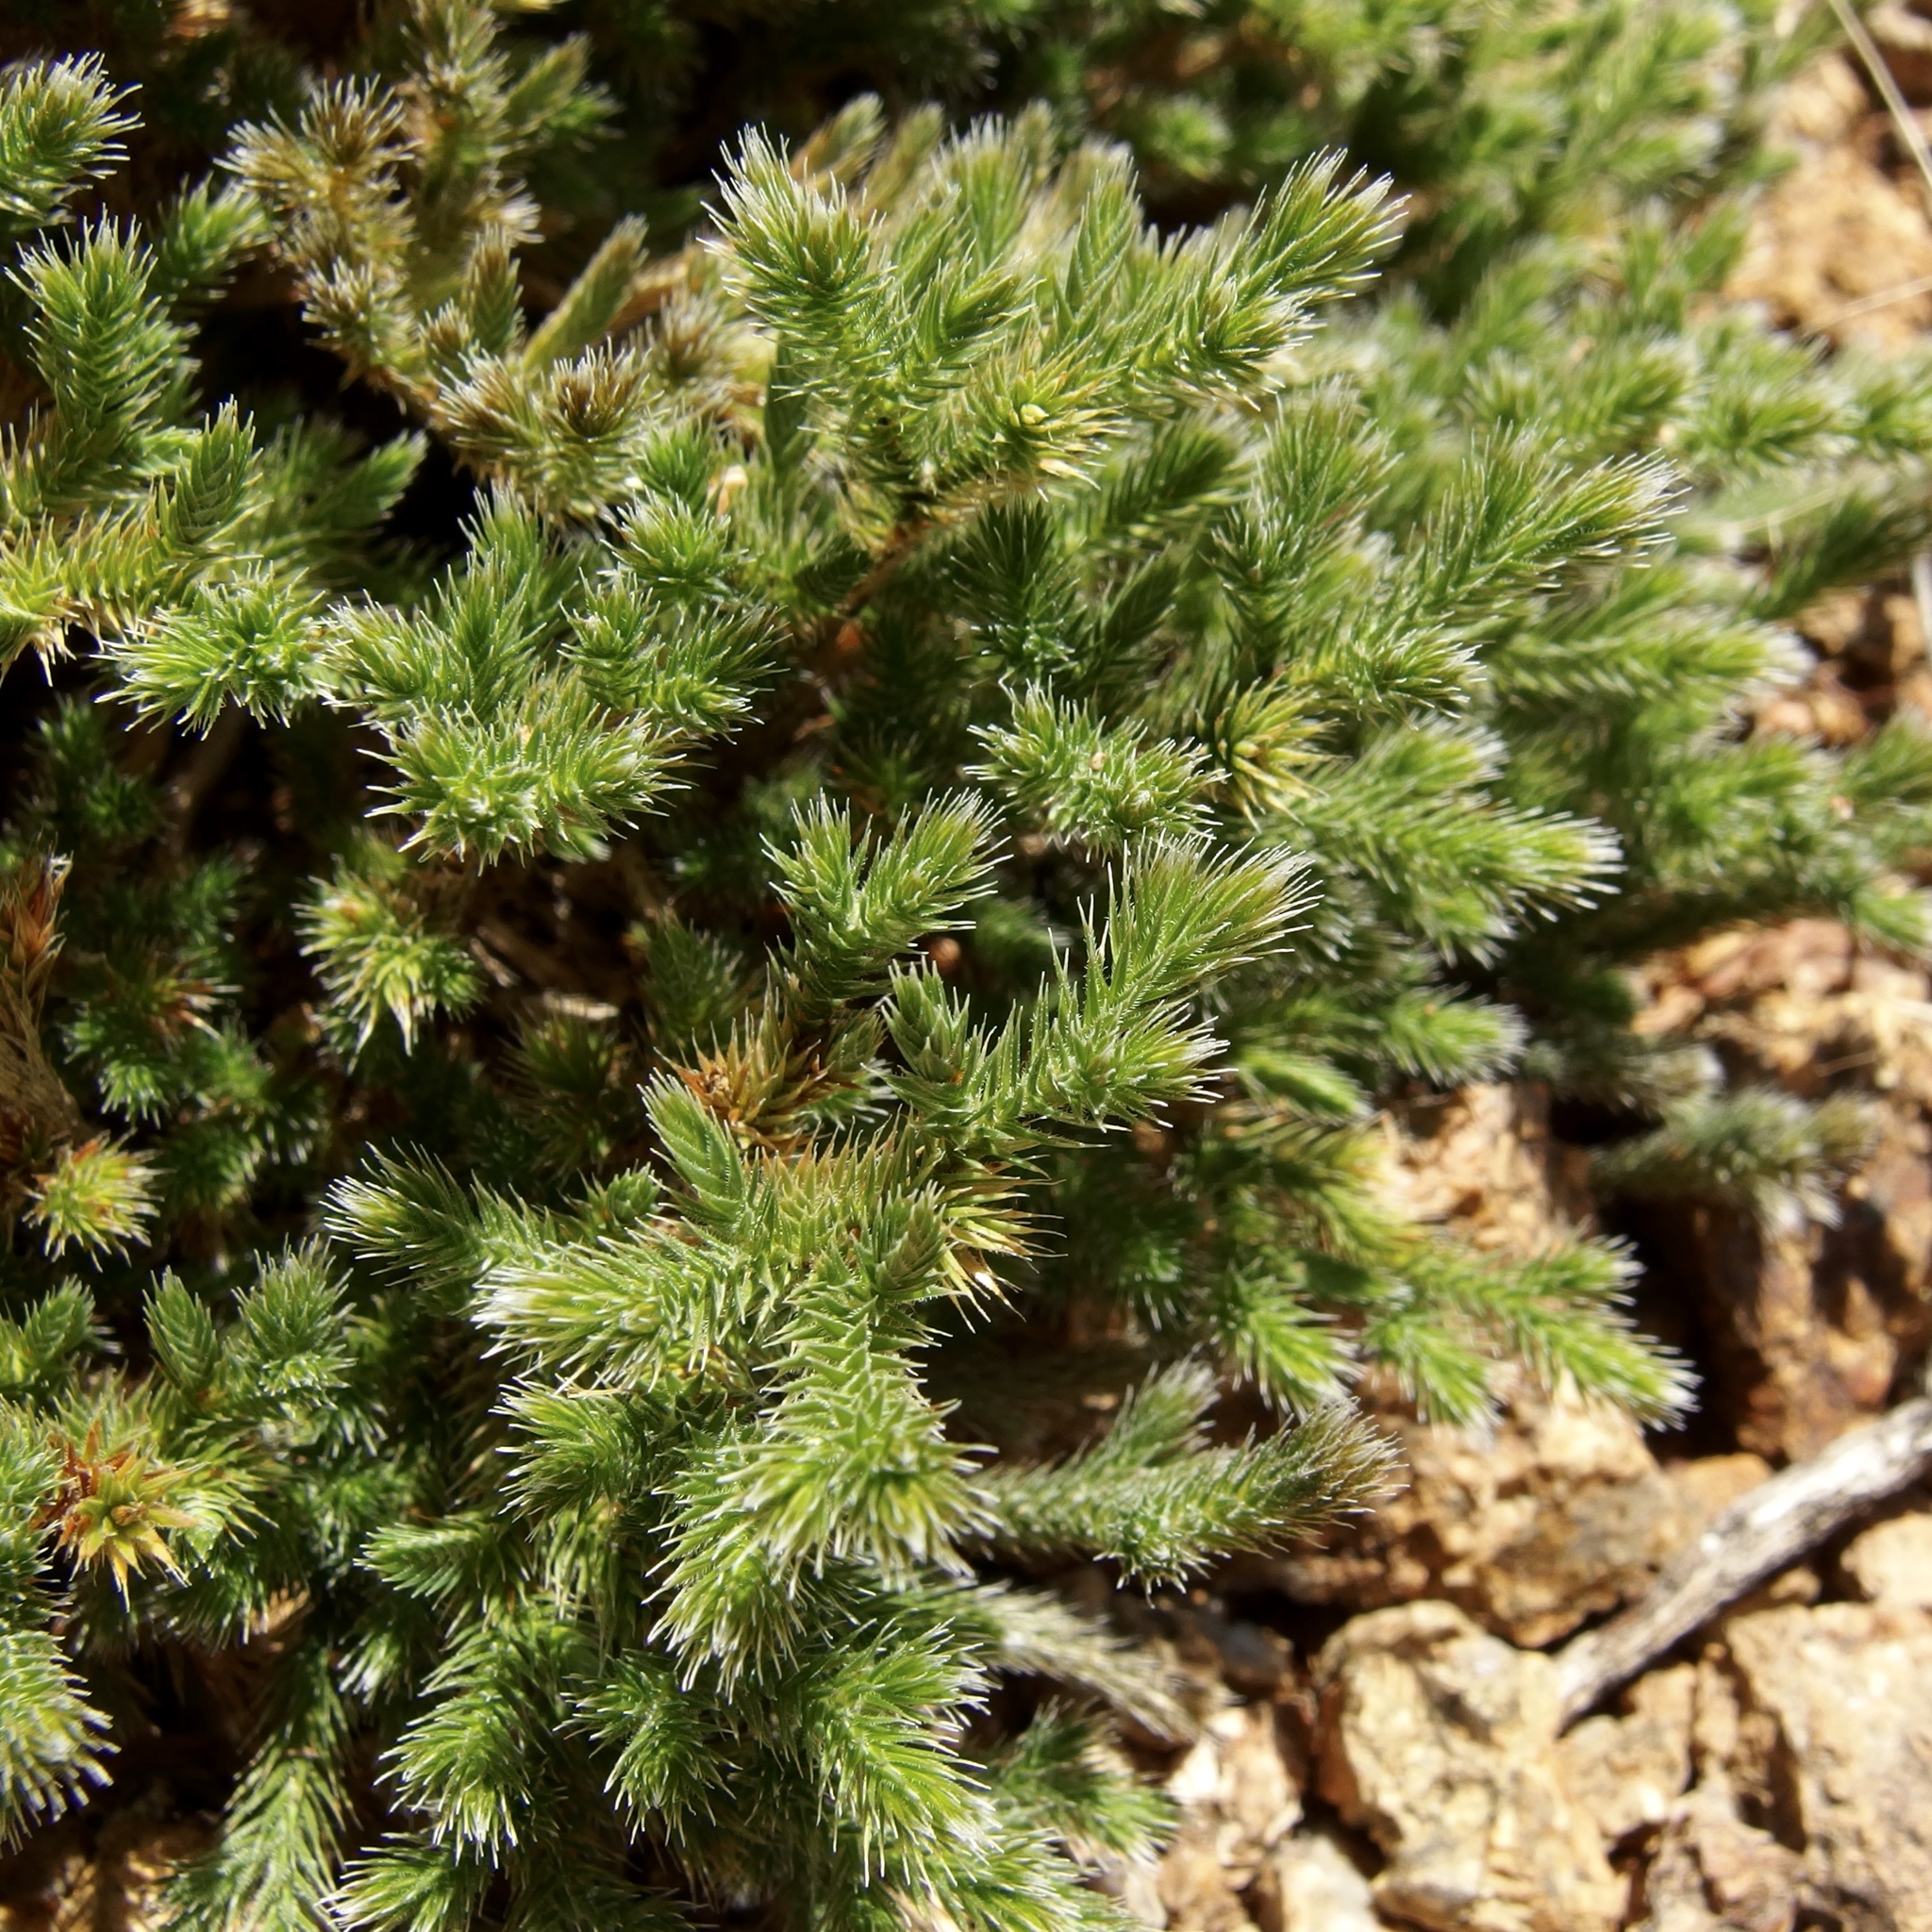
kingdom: Plantae
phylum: Tracheophyta
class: Lycopodiopsida
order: Selaginellales
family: Selaginellaceae
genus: Selaginella
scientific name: Selaginella rupincola
